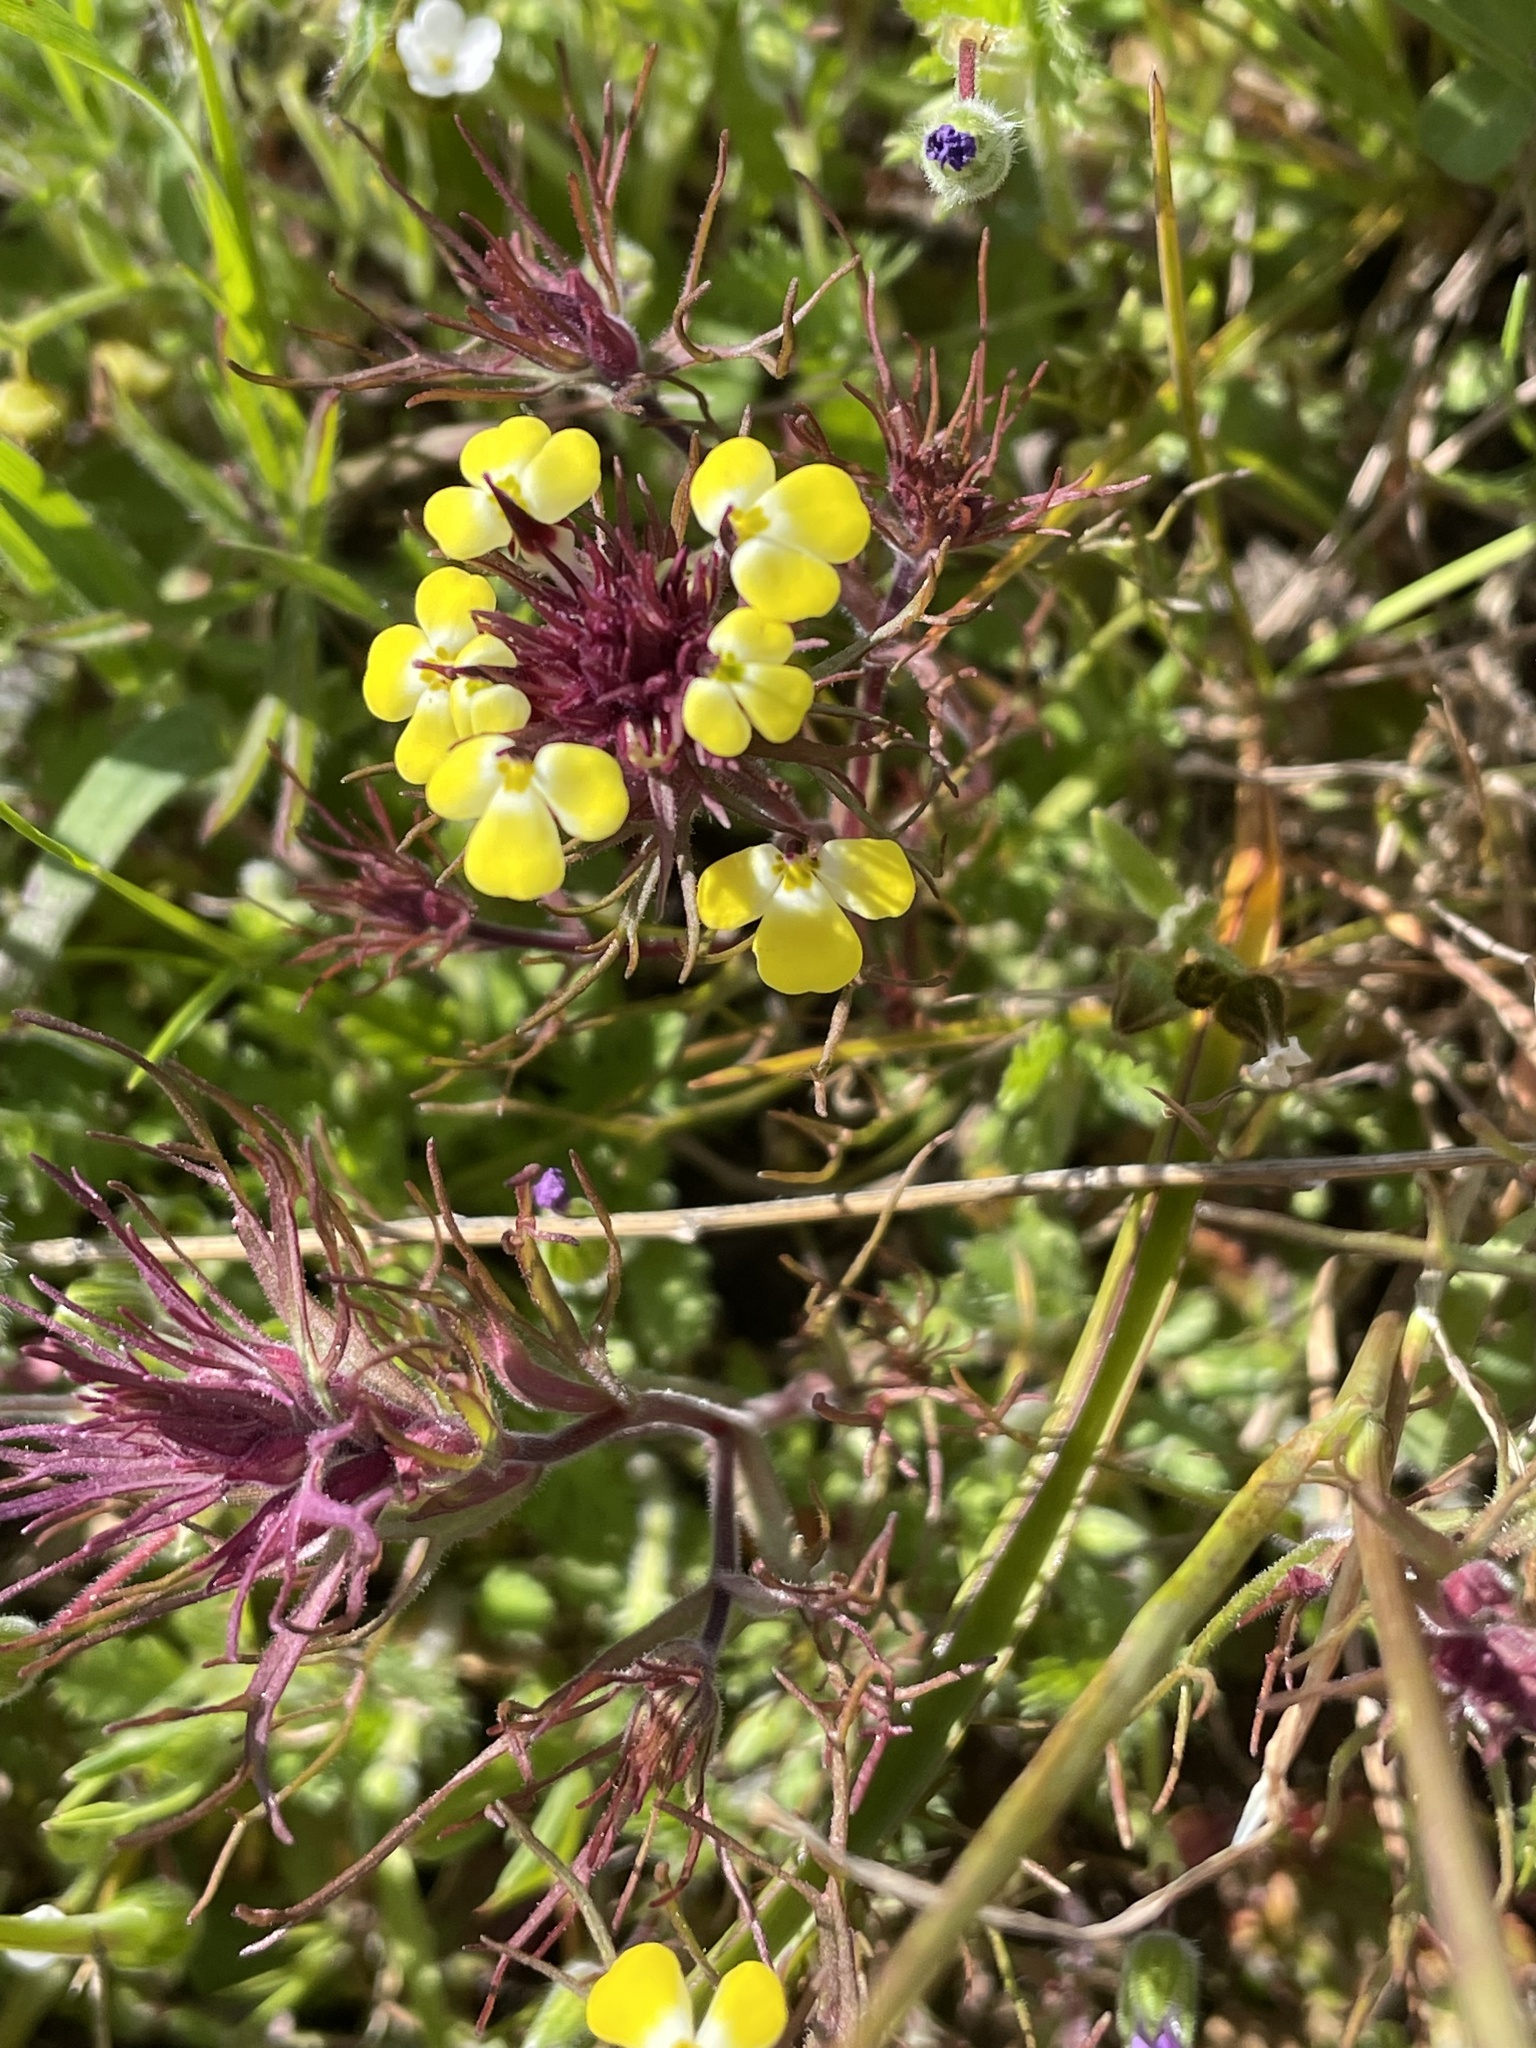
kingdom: Plantae
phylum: Tracheophyta
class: Magnoliopsida
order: Lamiales
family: Orobanchaceae
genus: Triphysaria
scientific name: Triphysaria eriantha
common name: Johnny-tuck
